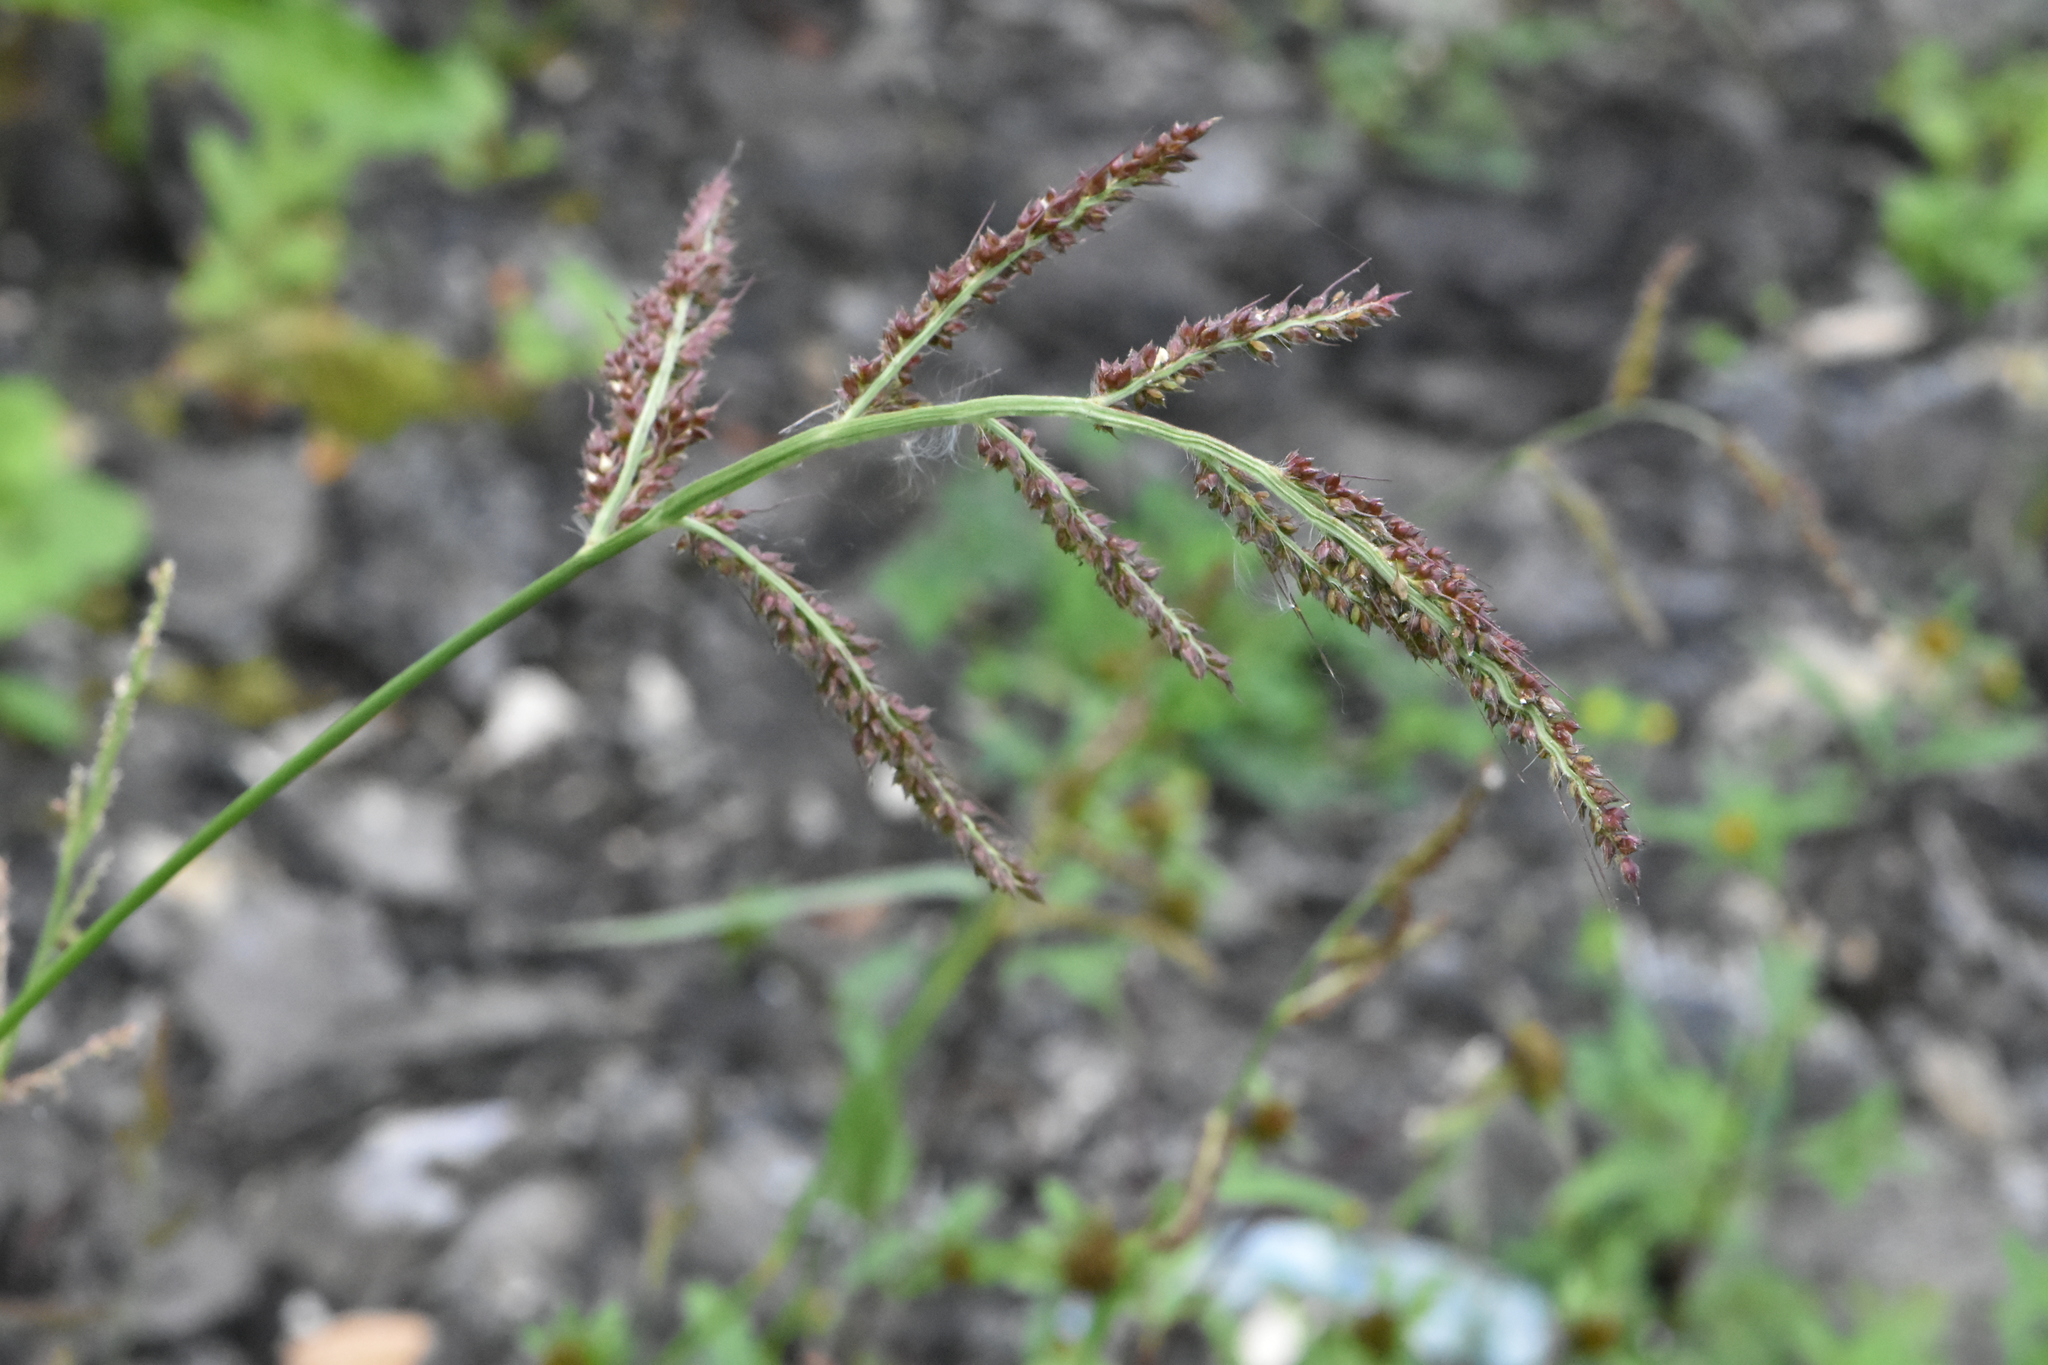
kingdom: Plantae
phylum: Tracheophyta
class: Liliopsida
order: Poales
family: Poaceae
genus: Echinochloa
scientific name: Echinochloa crus-galli
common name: Cockspur
